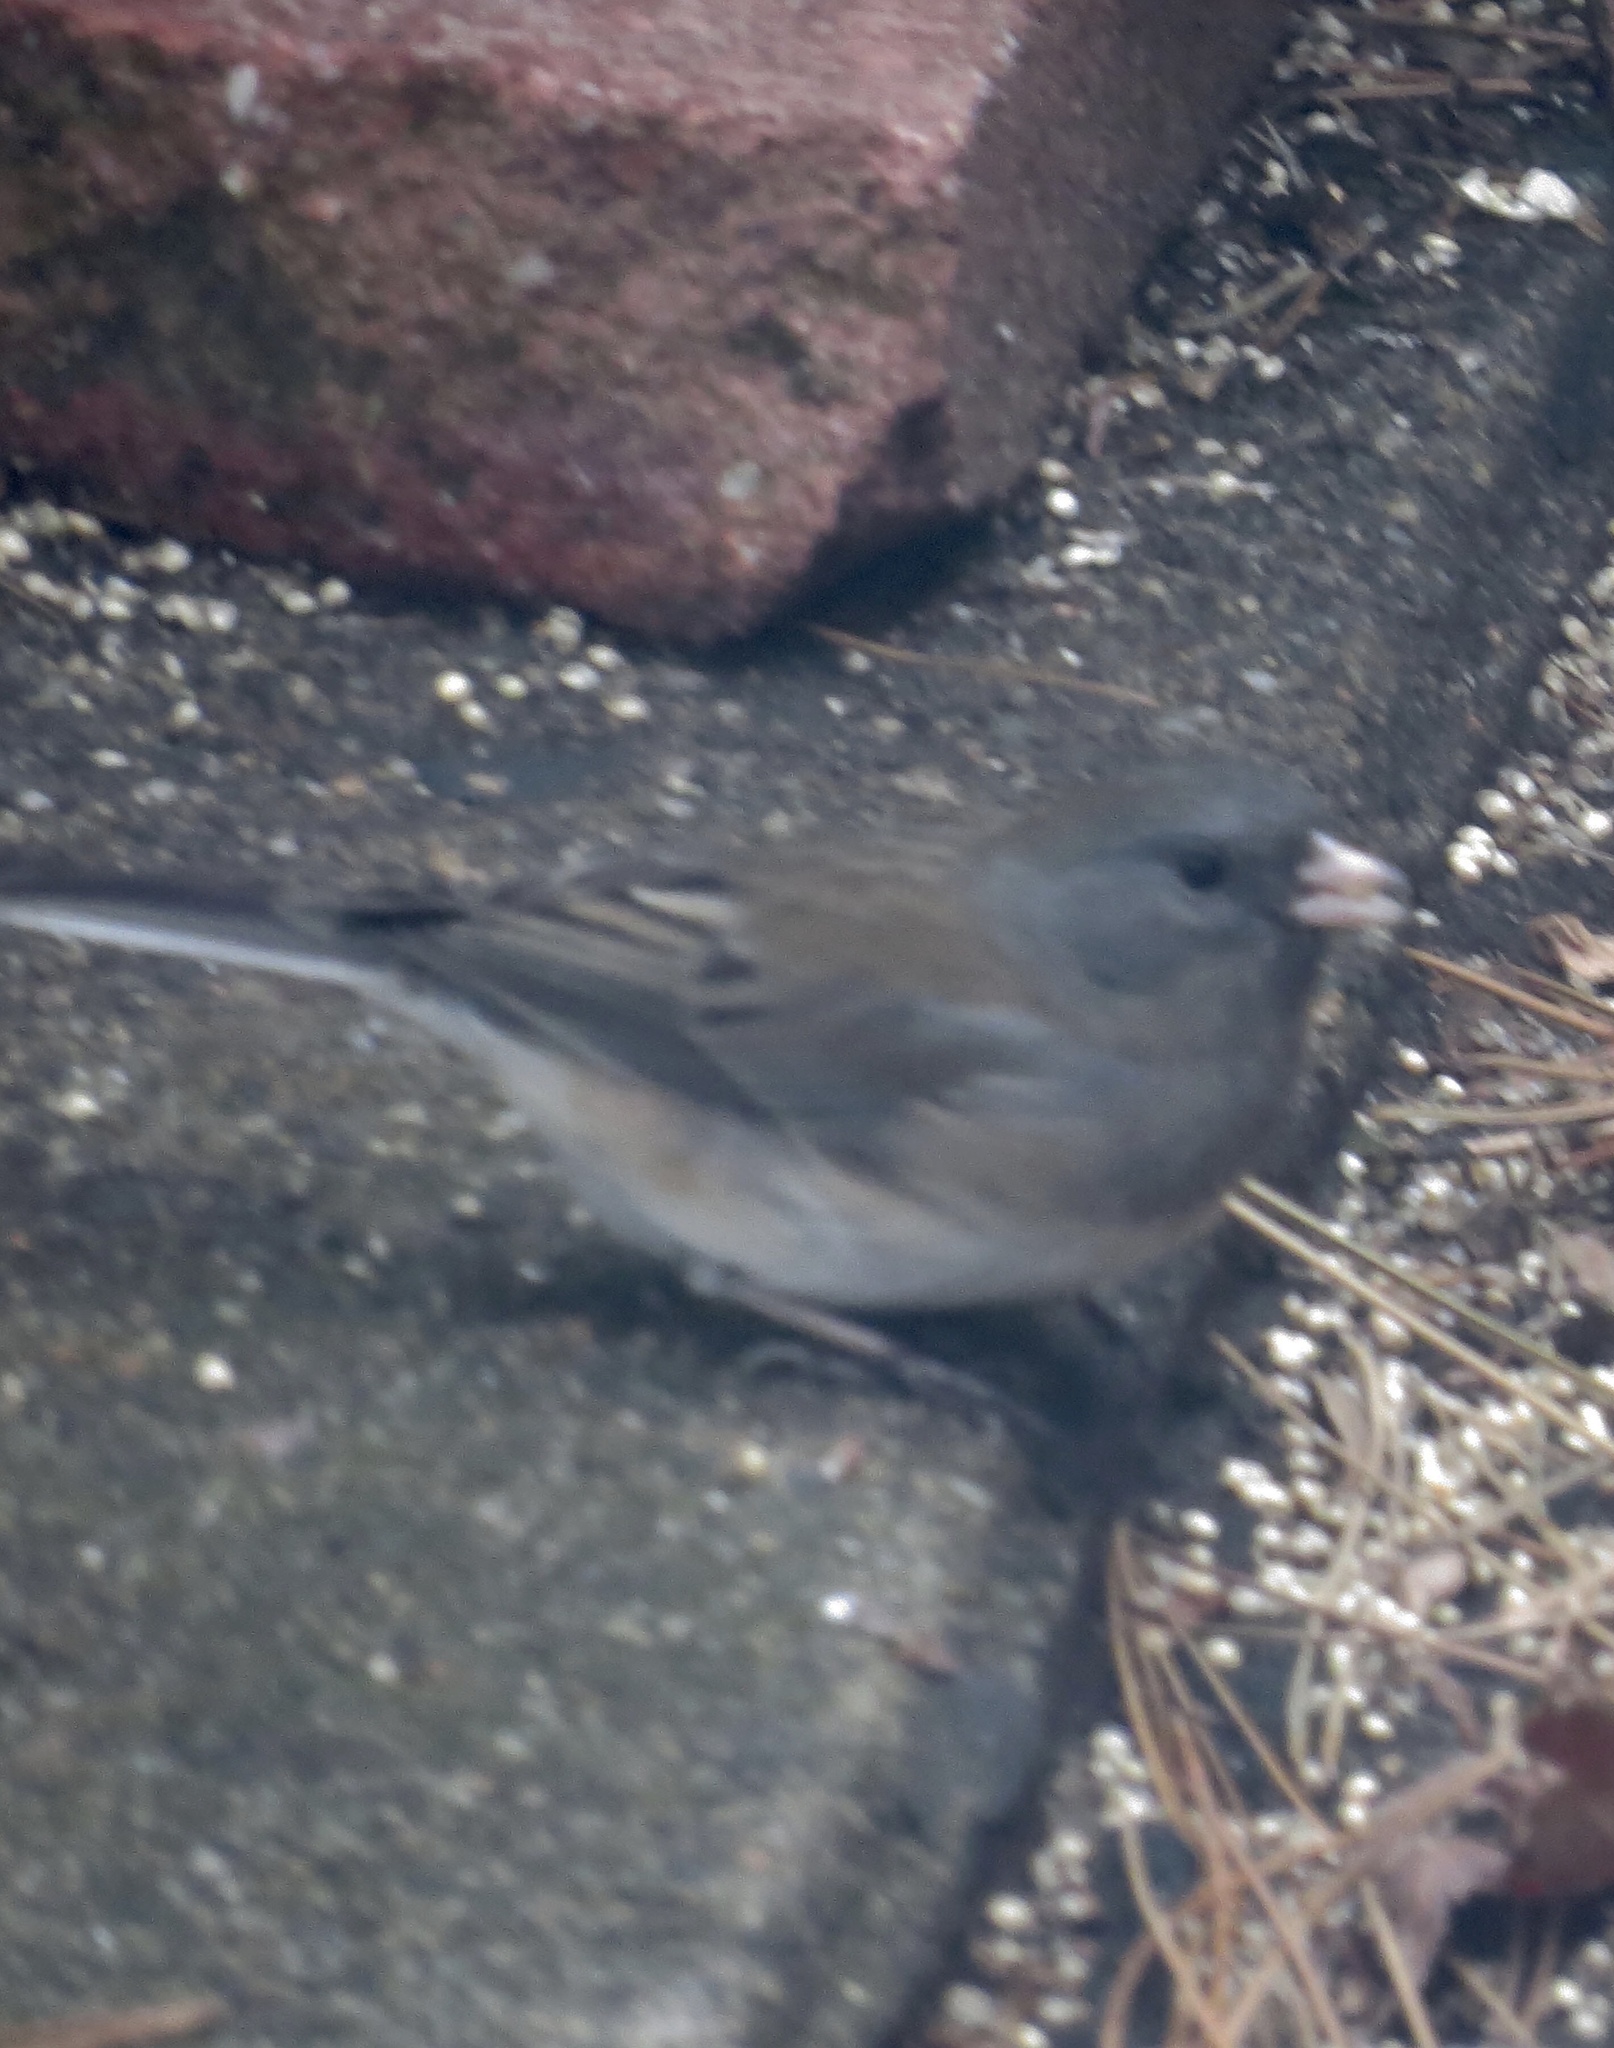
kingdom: Animalia
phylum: Chordata
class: Aves
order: Passeriformes
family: Passerellidae
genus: Junco
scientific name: Junco hyemalis
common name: Dark-eyed junco
